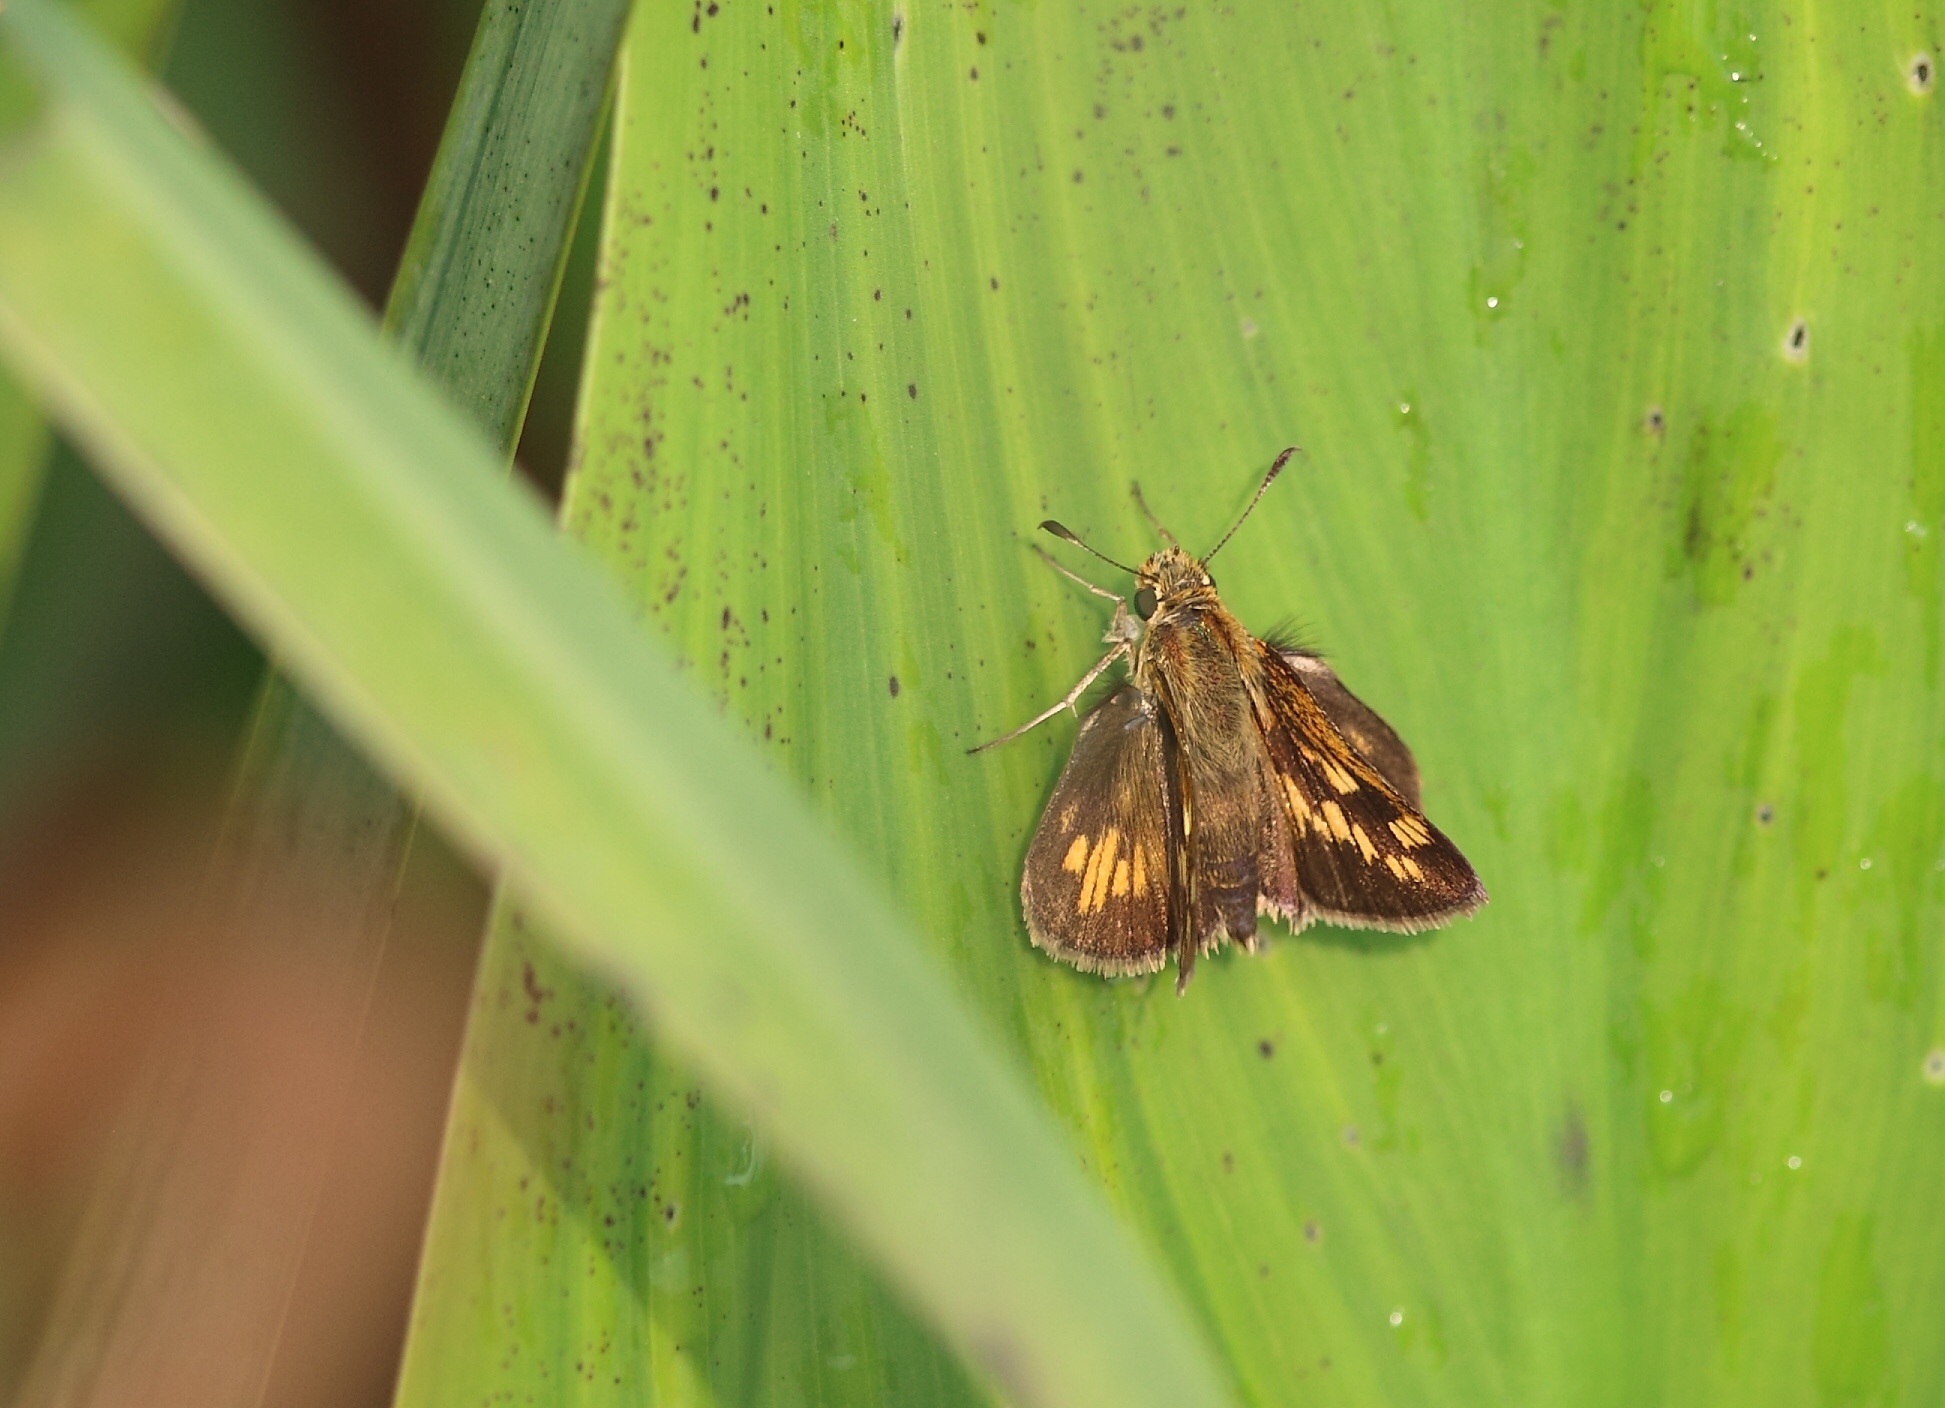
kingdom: Animalia
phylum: Arthropoda
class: Insecta
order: Lepidoptera
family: Hesperiidae
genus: Polites
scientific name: Polites coras
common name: Peck's skipper
